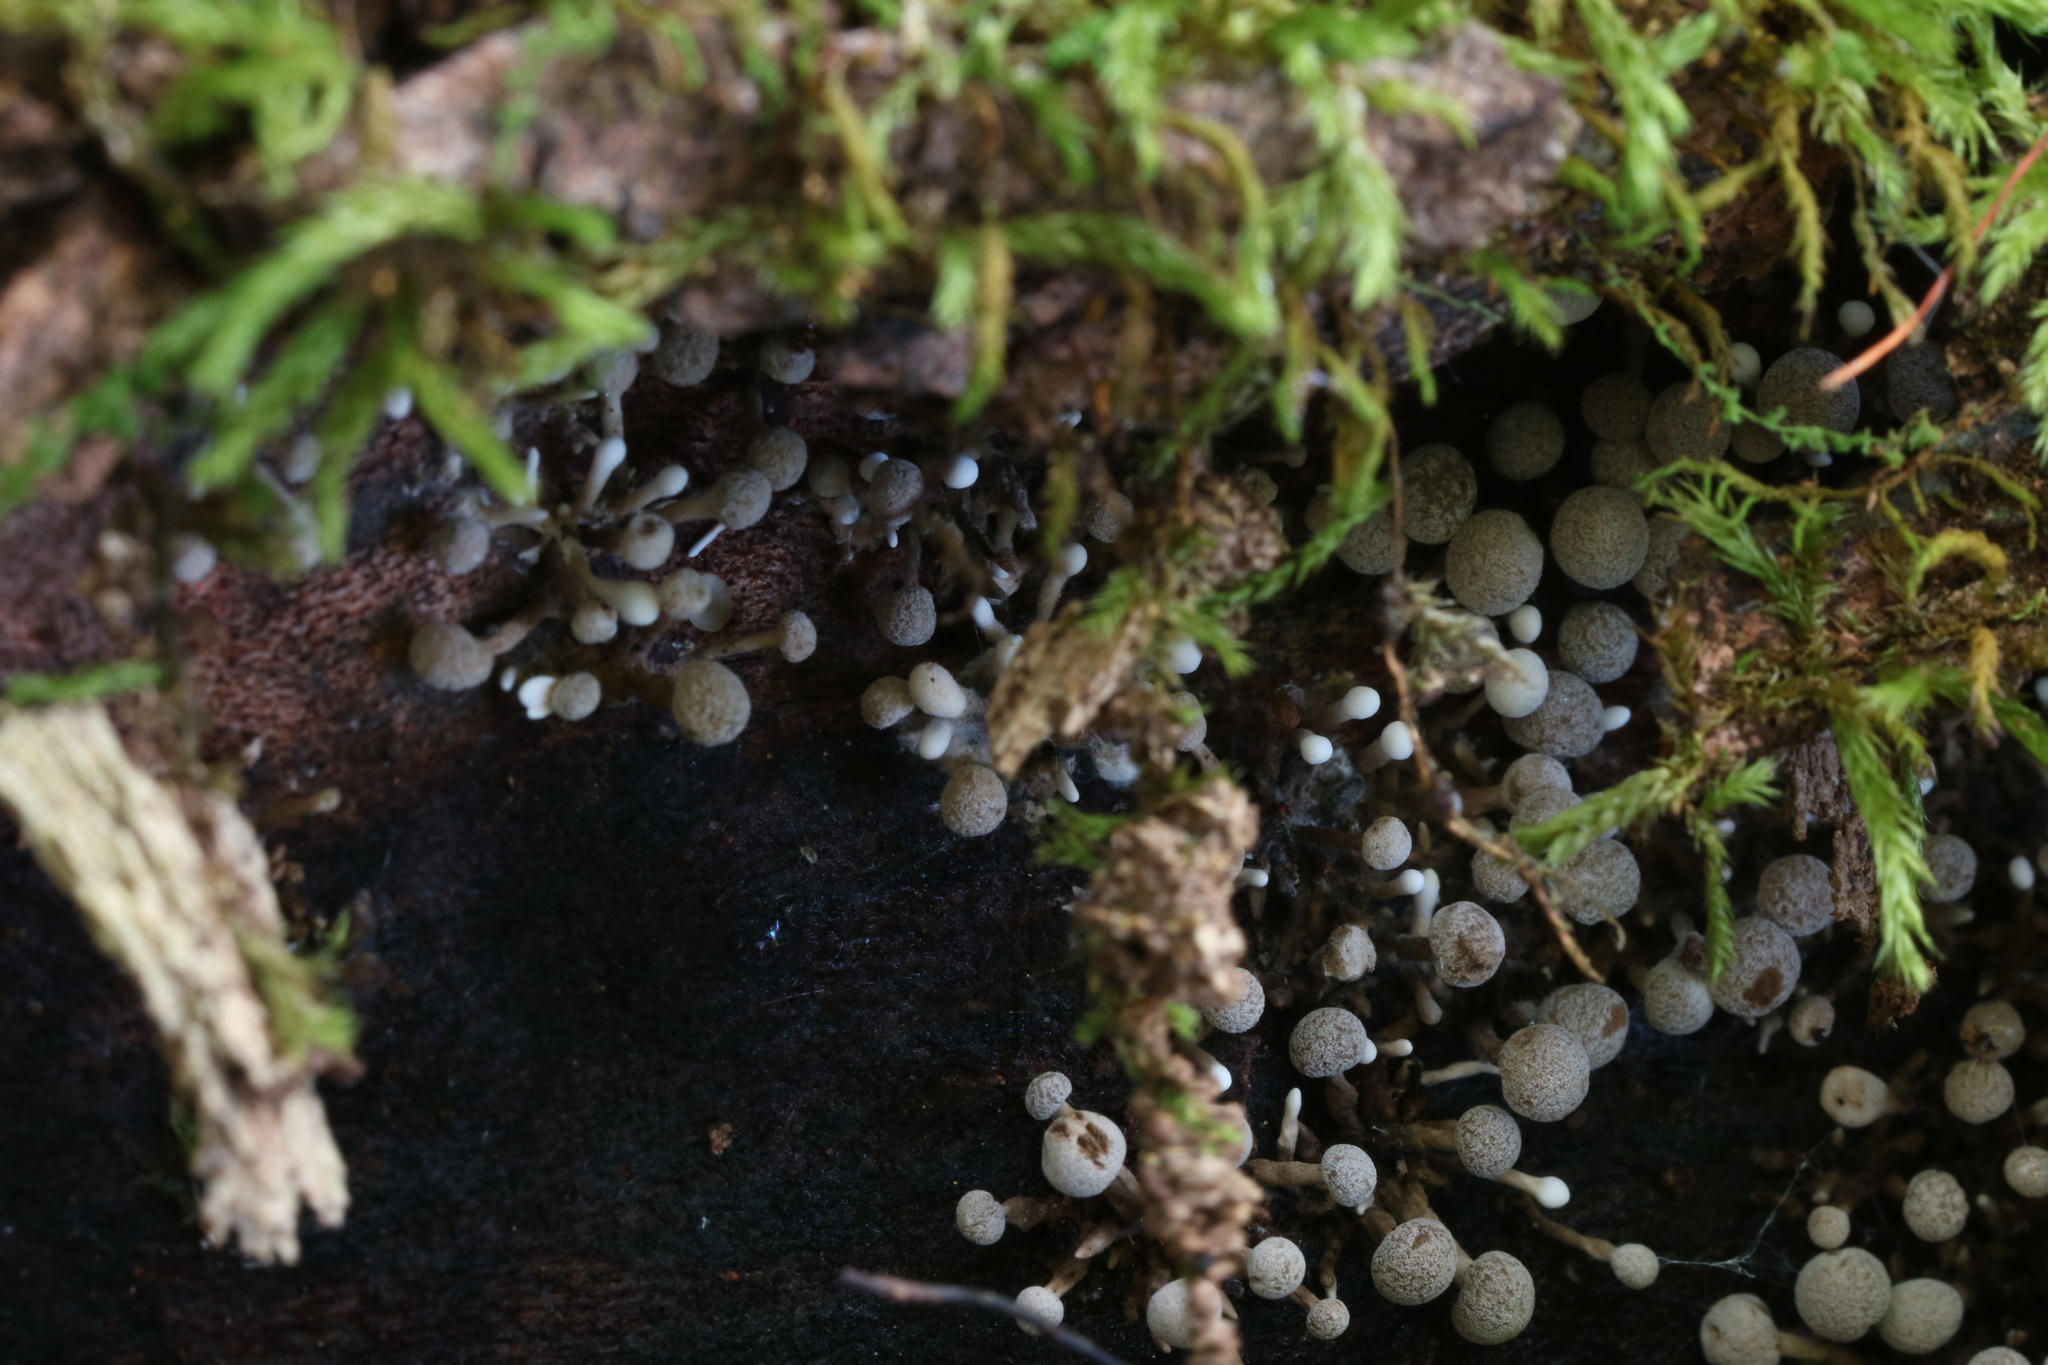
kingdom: Fungi
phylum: Basidiomycota
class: Atractiellomycetes
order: Atractiellales
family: Phleogenaceae
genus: Phleogena
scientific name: Phleogena faginea
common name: Fenugreek stalkball
